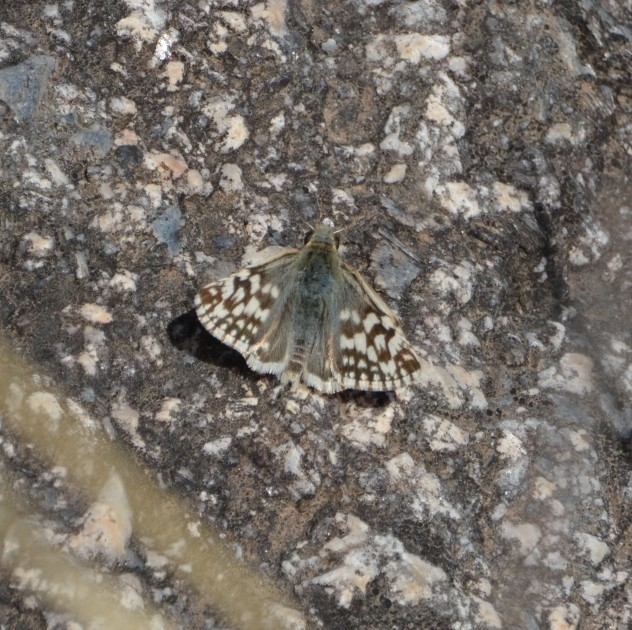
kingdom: Animalia
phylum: Arthropoda
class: Insecta
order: Lepidoptera
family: Hesperiidae
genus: Heliopetes
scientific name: Heliopetes americanus
